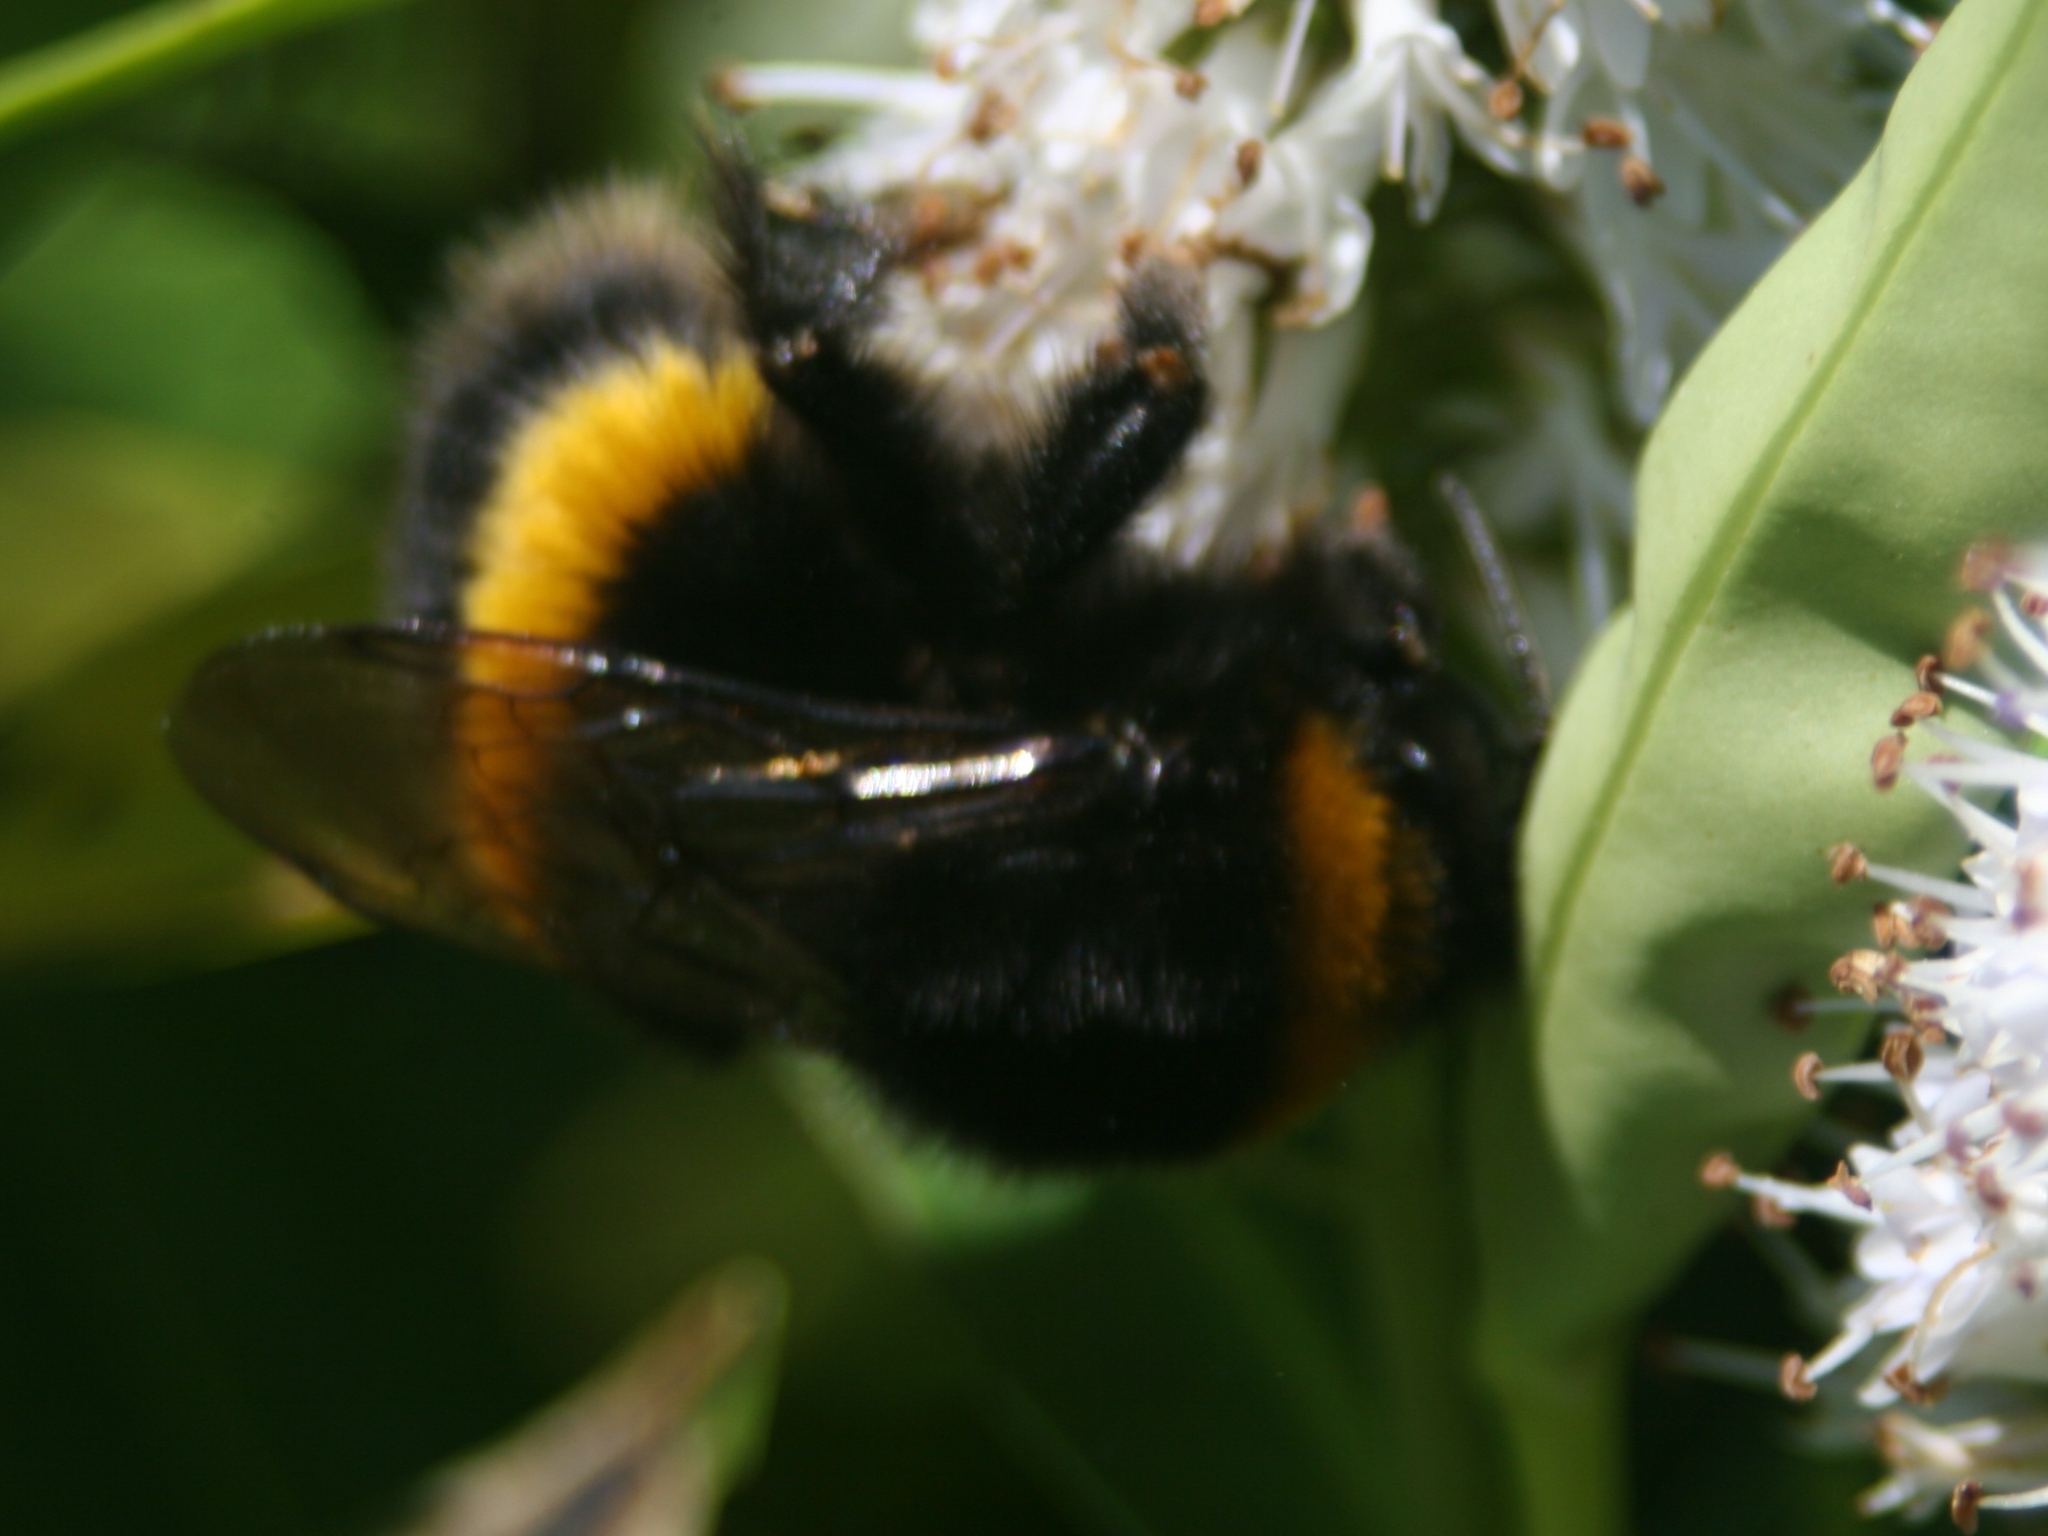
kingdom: Animalia
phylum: Arthropoda
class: Insecta
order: Hymenoptera
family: Apidae
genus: Bombus
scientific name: Bombus terrestris
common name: Buff-tailed bumblebee
